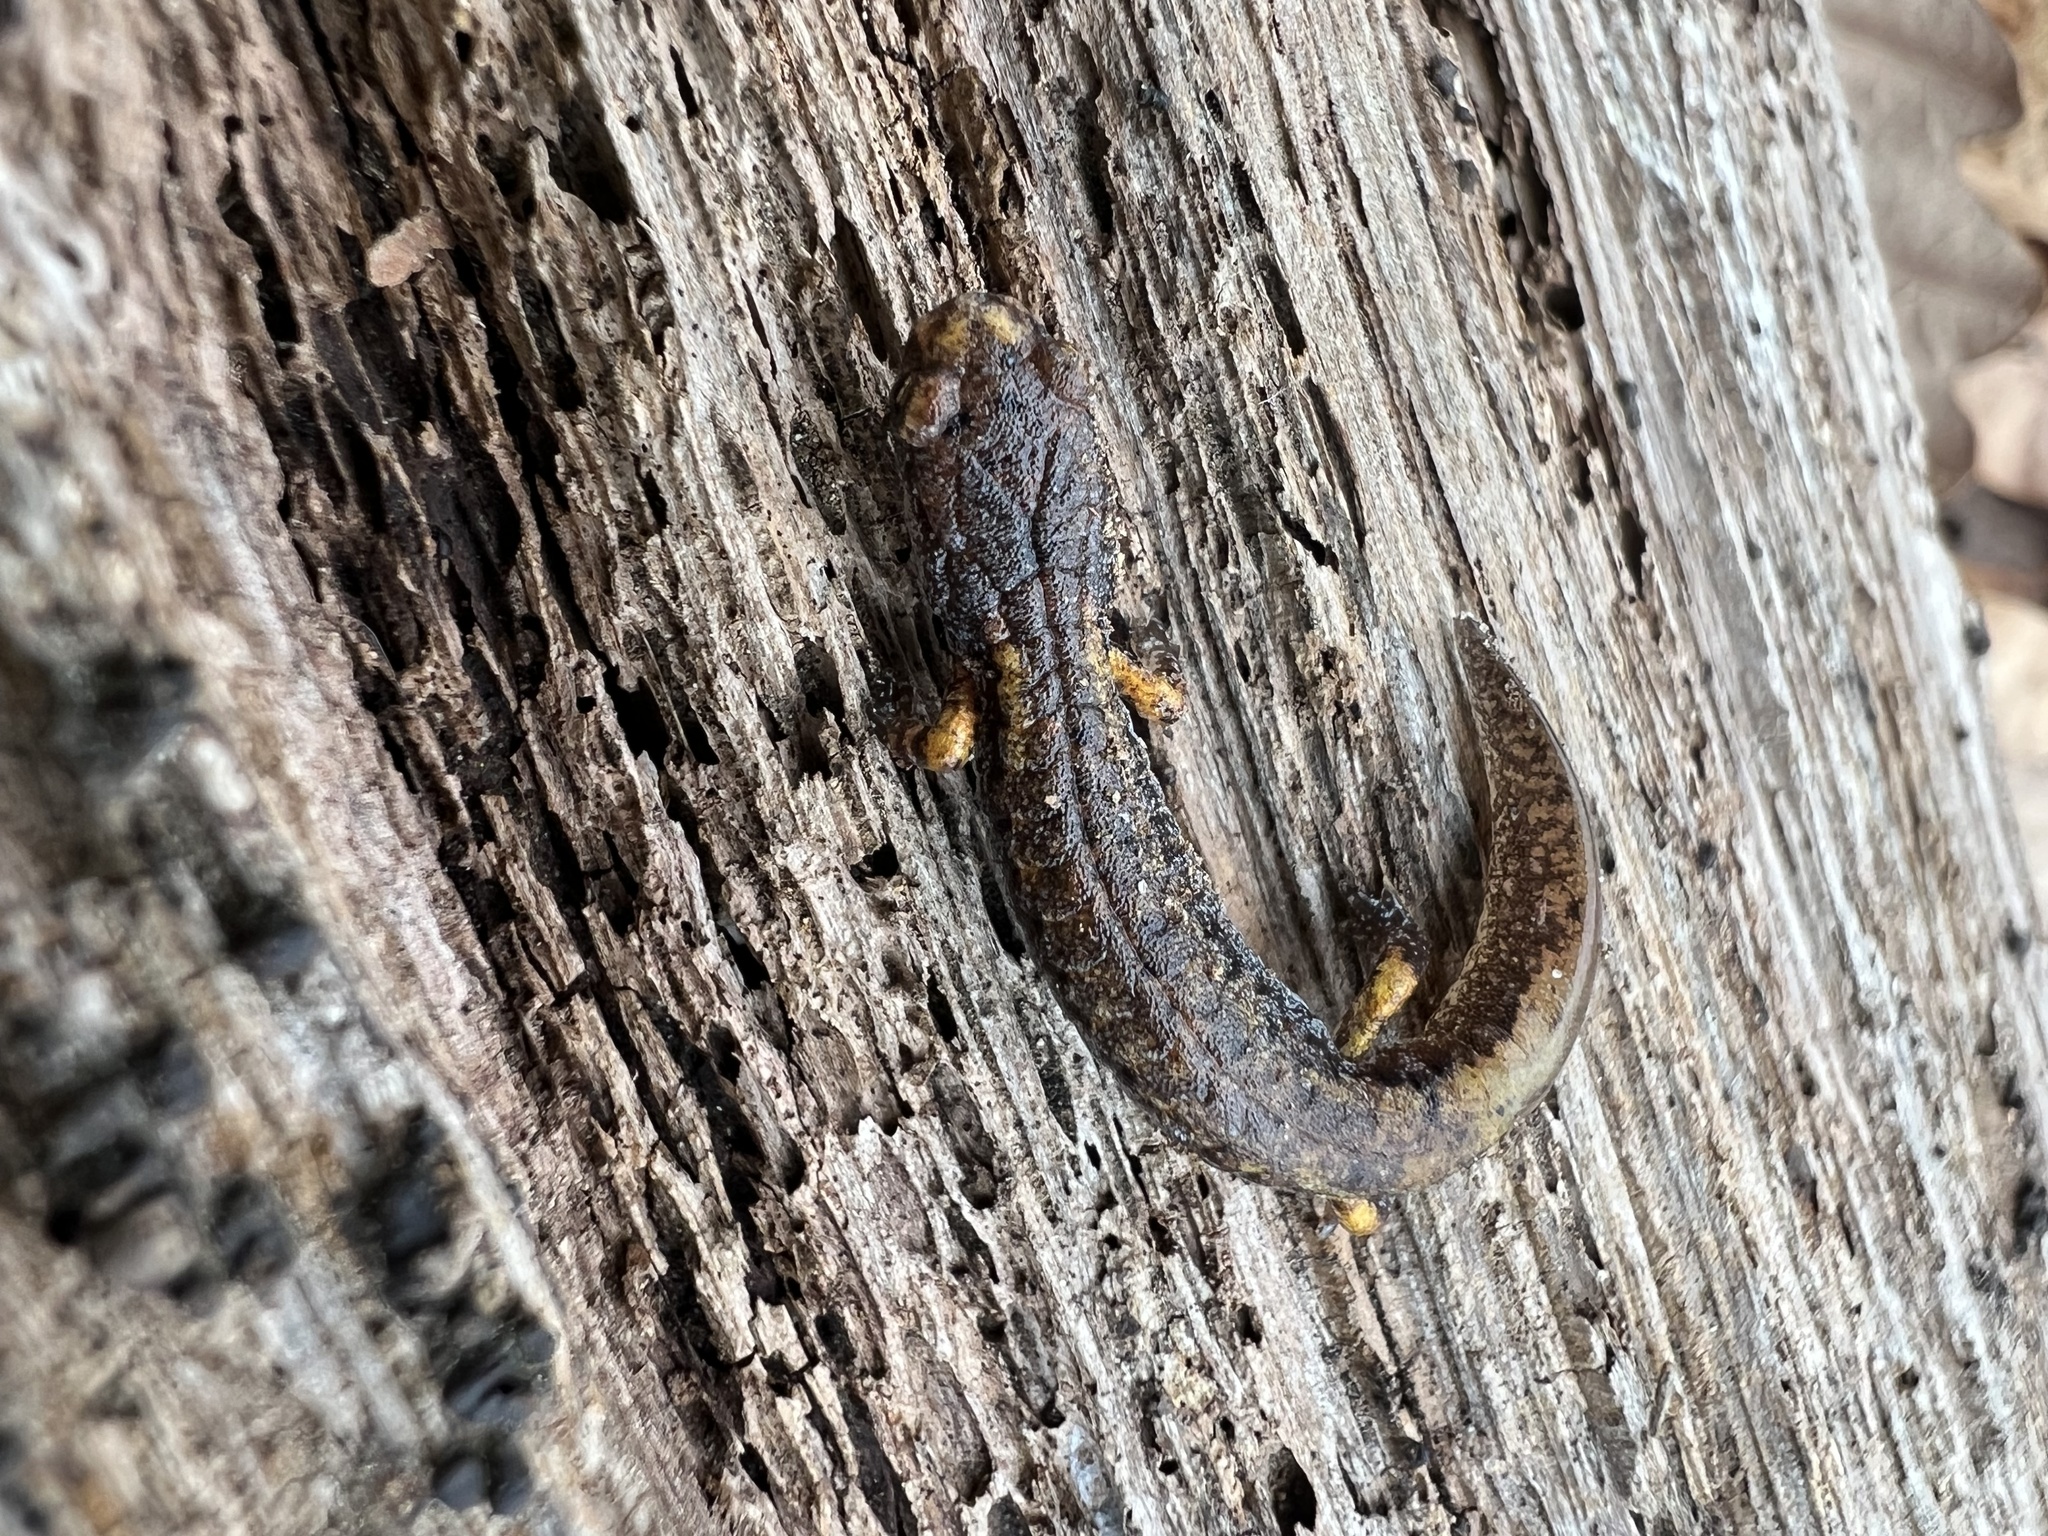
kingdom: Animalia
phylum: Chordata
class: Amphibia
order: Caudata
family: Plethodontidae
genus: Hemidactylium
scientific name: Hemidactylium scutatum
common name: Four-toed salamander
